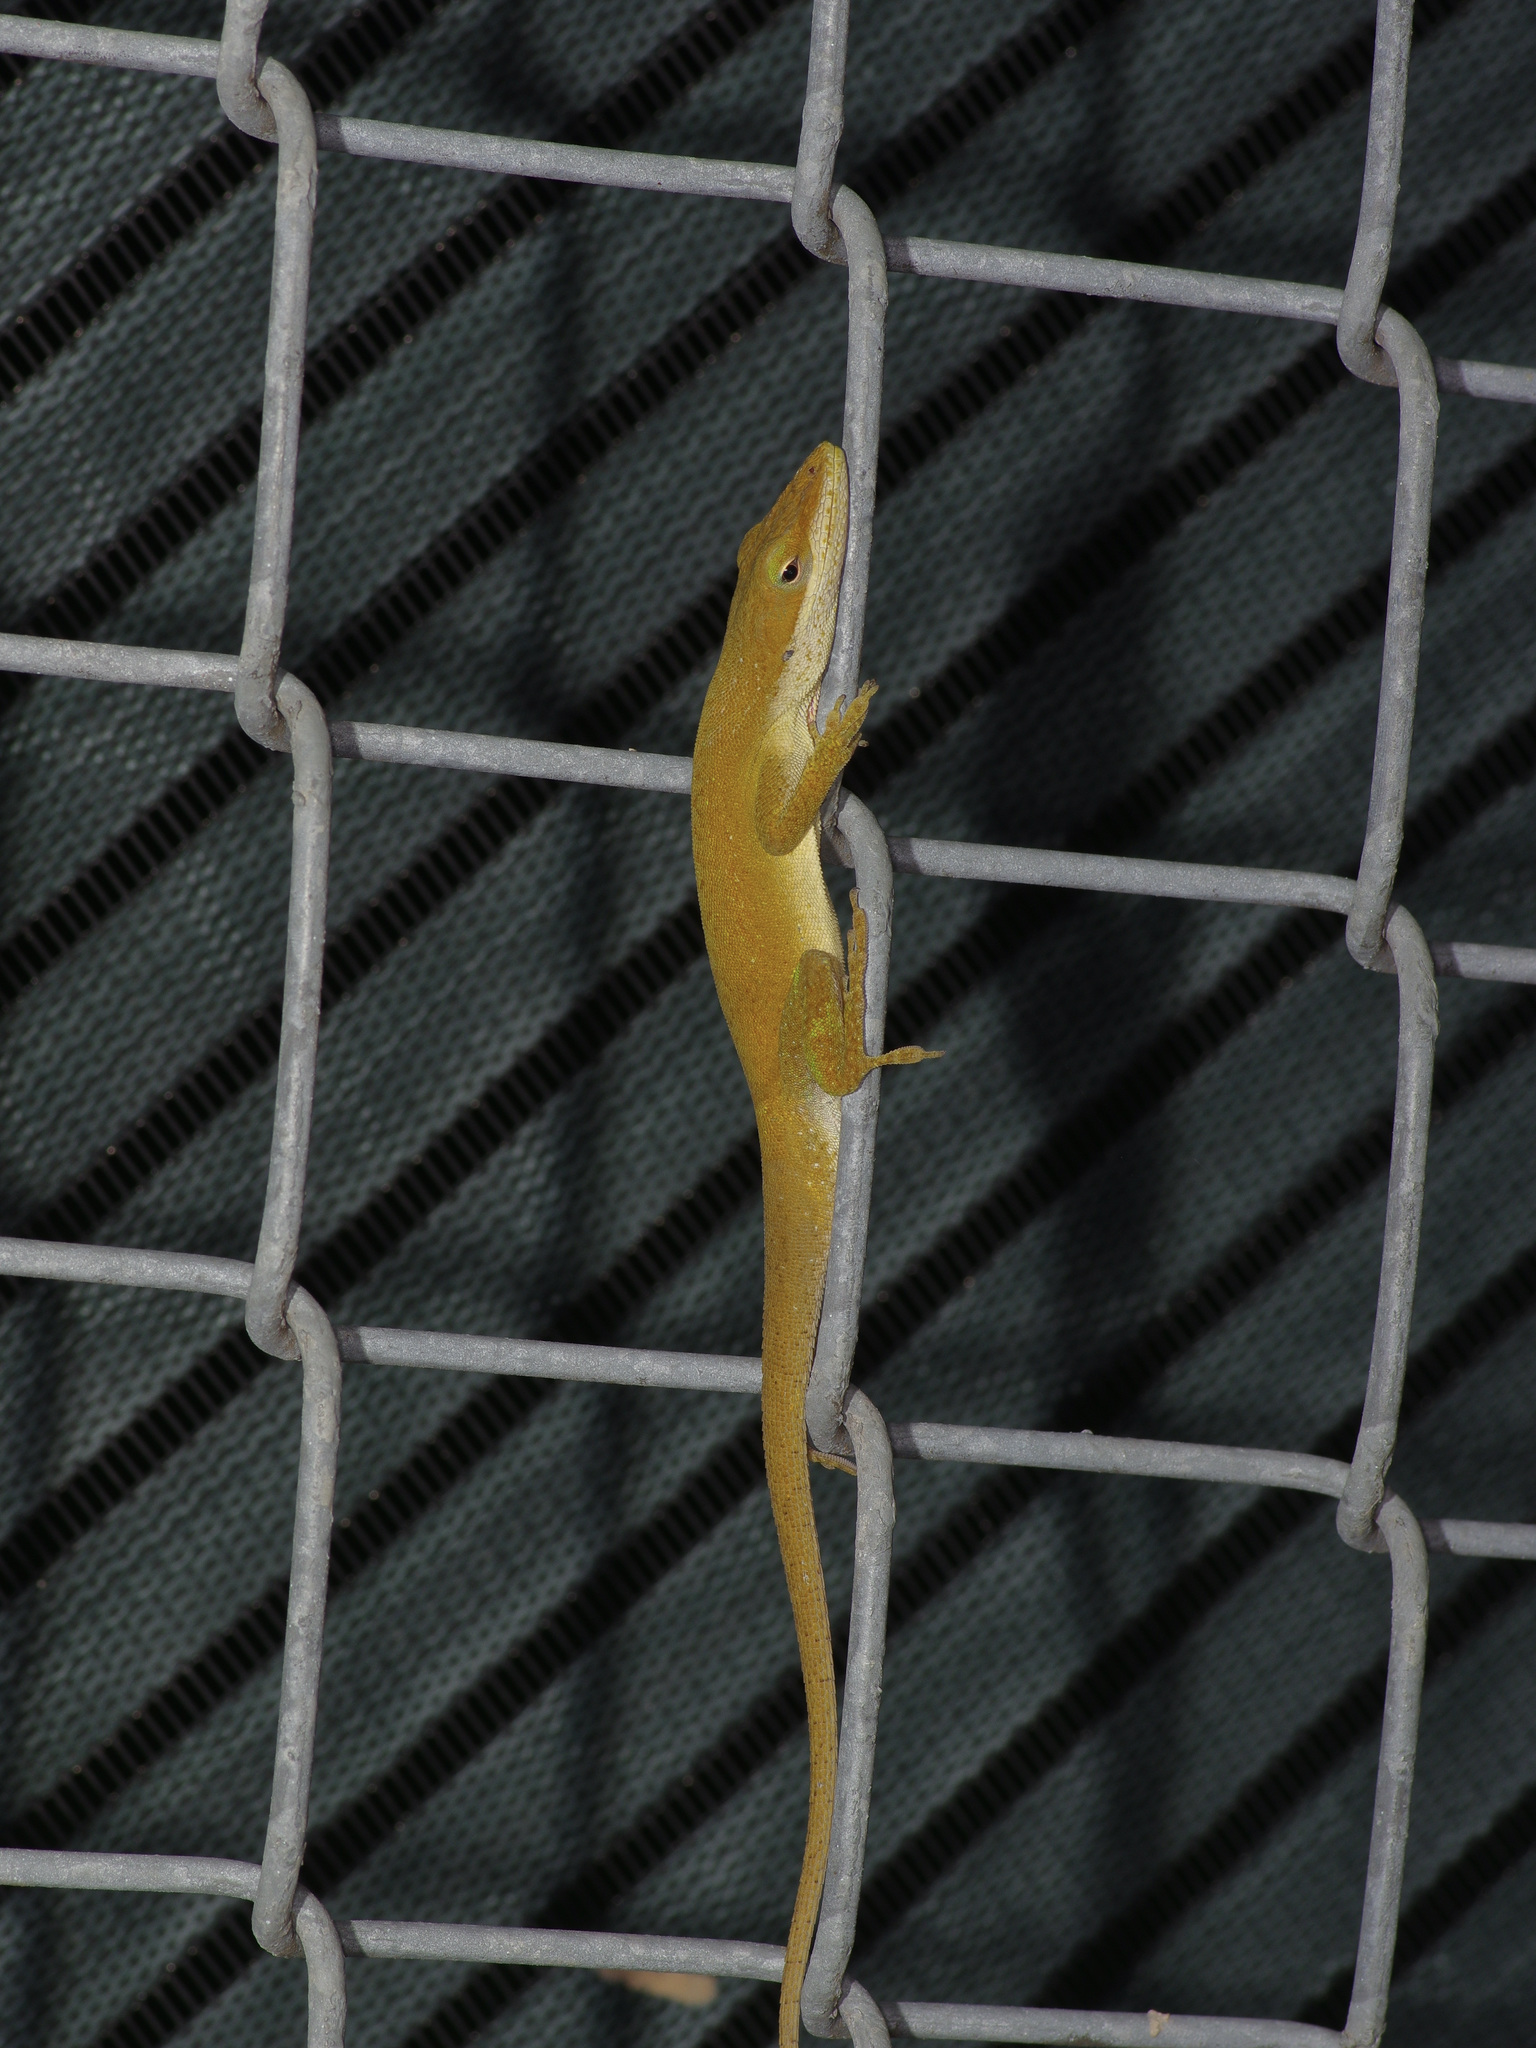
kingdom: Animalia
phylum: Chordata
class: Squamata
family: Dactyloidae
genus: Anolis
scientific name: Anolis carolinensis
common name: Green anole
